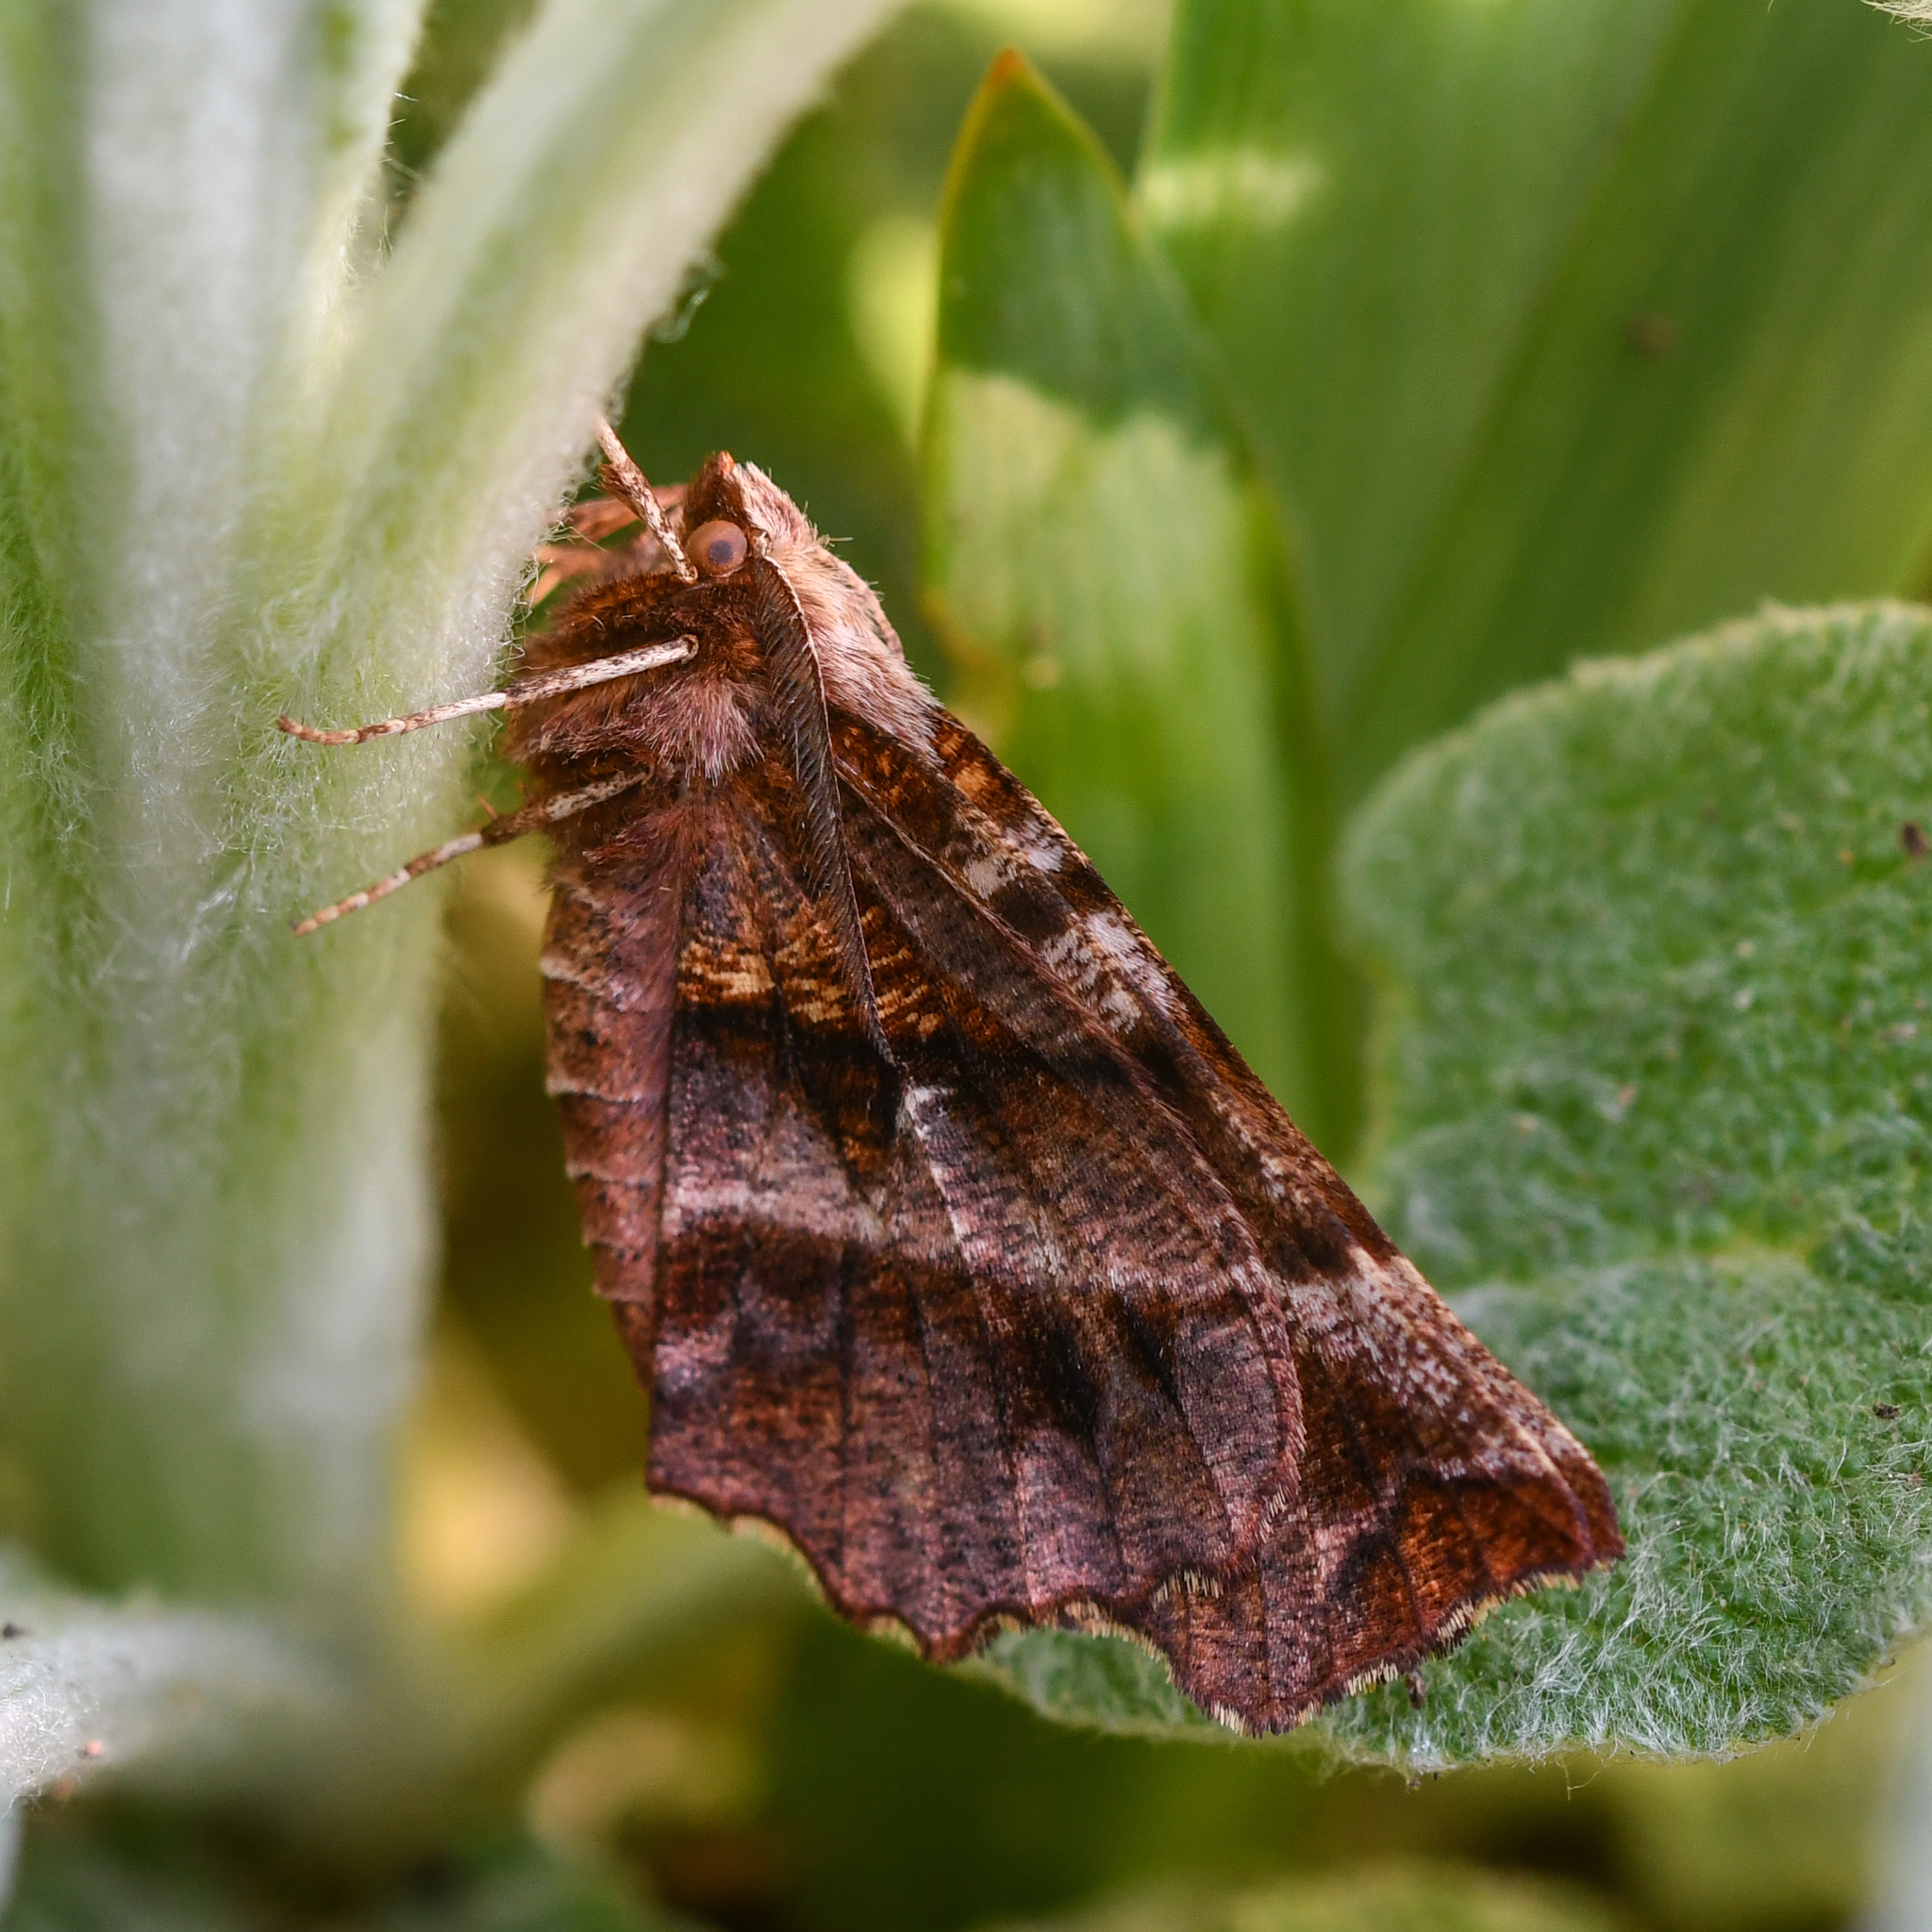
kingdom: Animalia
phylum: Arthropoda
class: Insecta
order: Lepidoptera
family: Geometridae
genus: Selenia
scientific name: Selenia dentaria
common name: Early thorn
